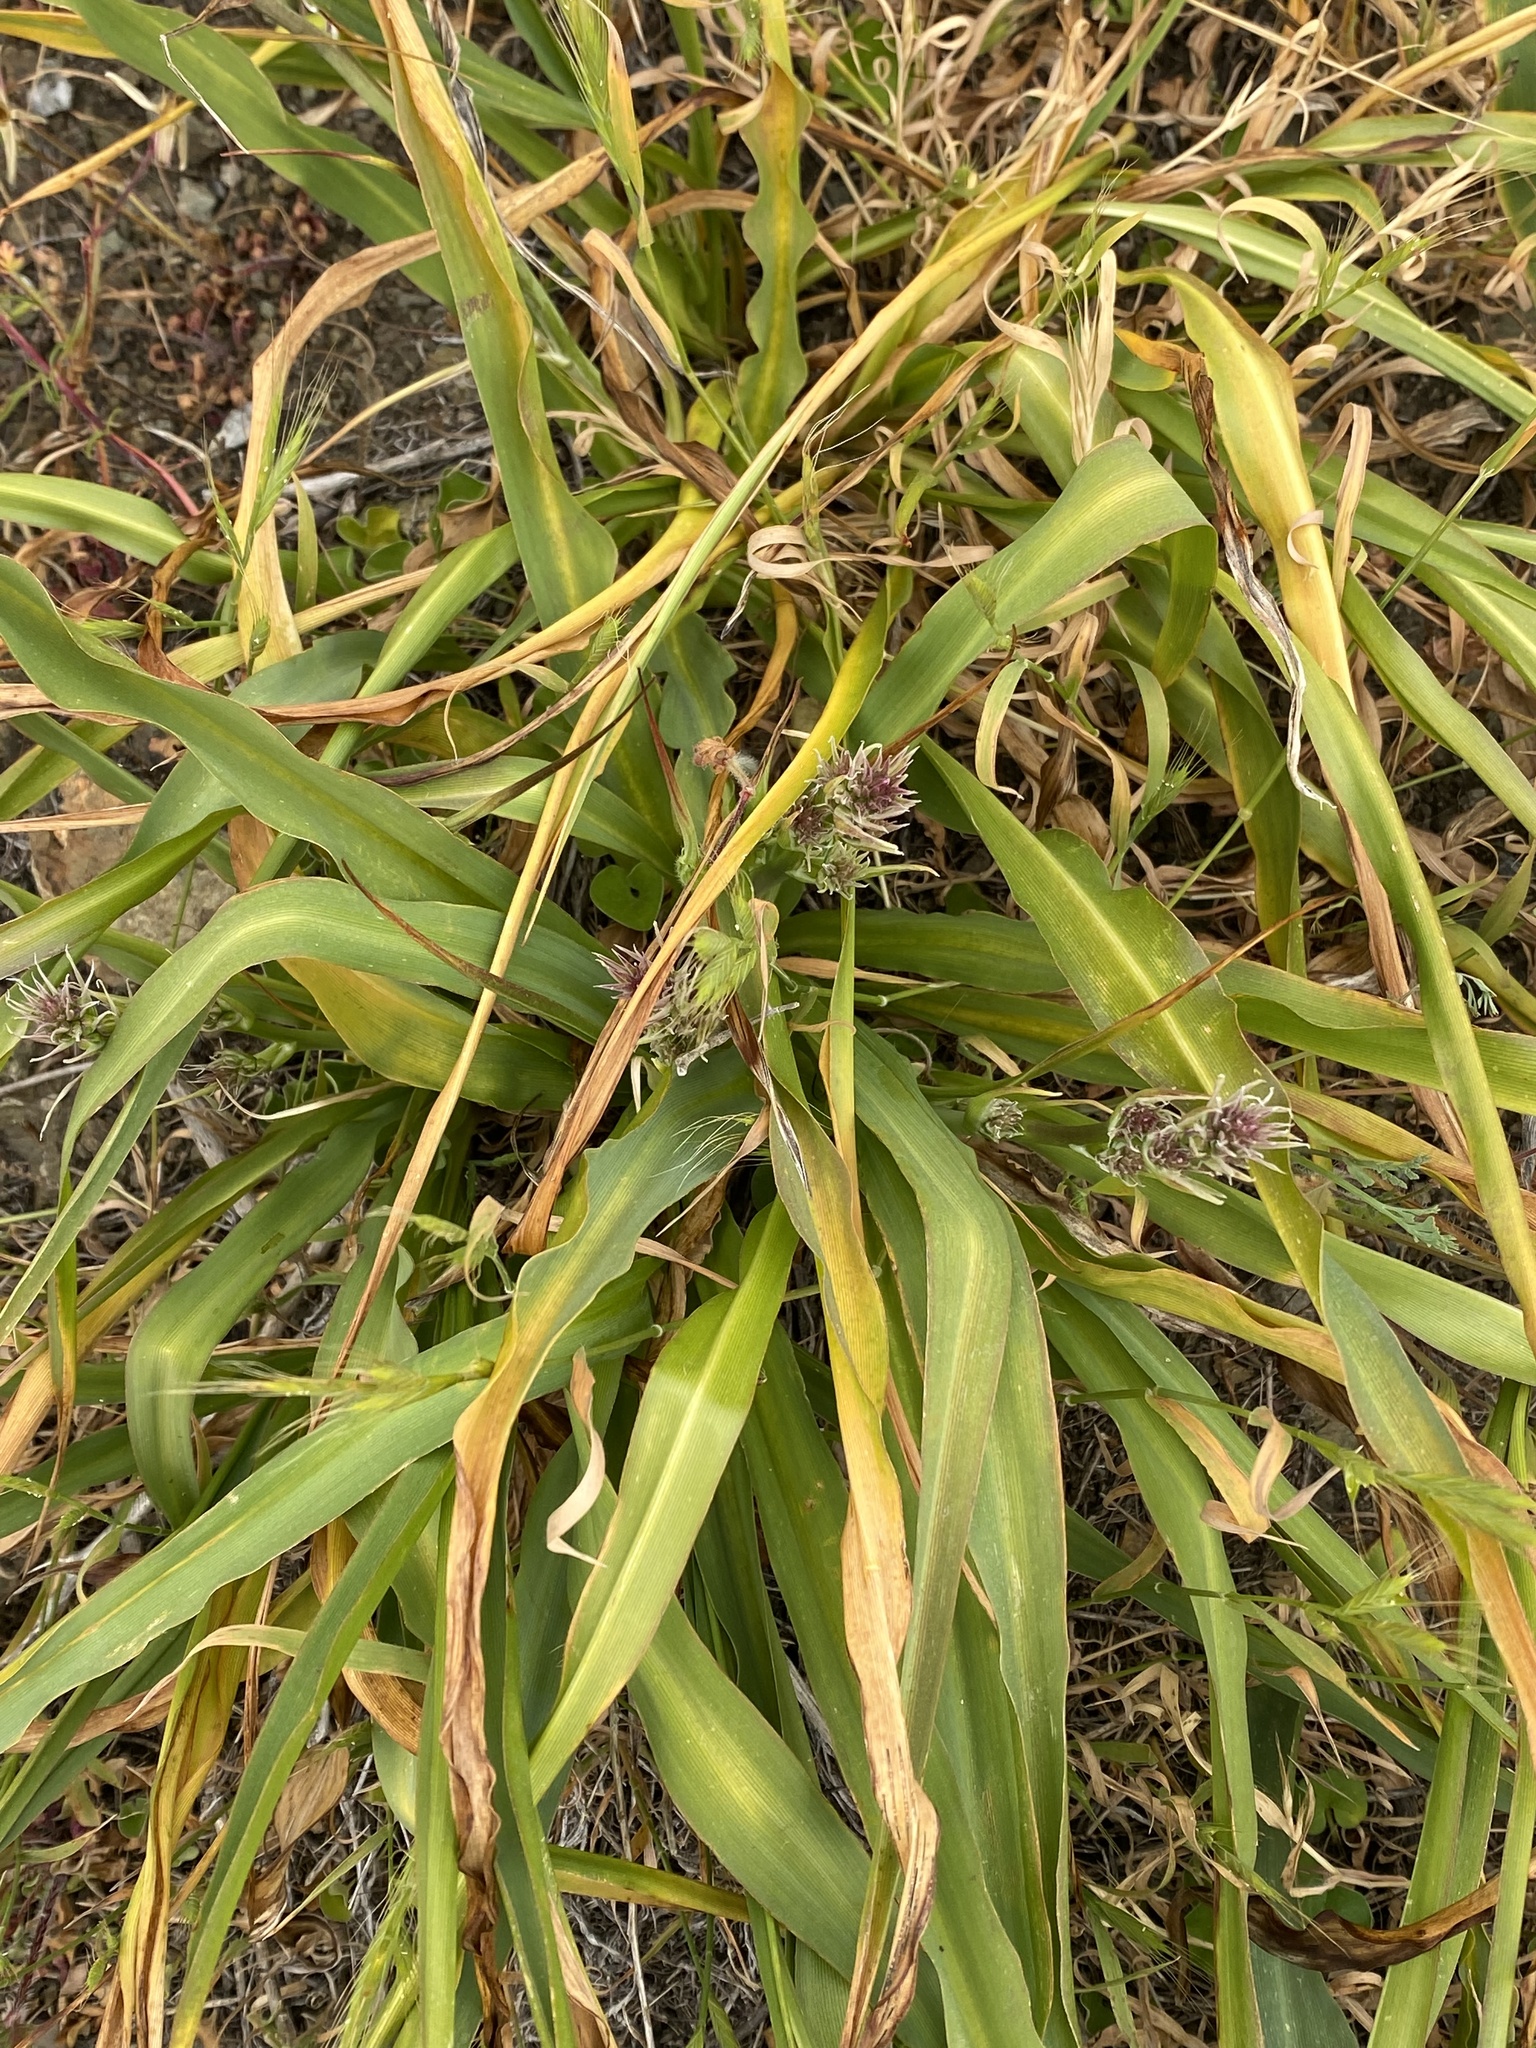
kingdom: Plantae
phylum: Tracheophyta
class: Liliopsida
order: Asparagales
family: Asparagaceae
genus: Chlorogalum
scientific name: Chlorogalum pomeridianum
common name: Amole
